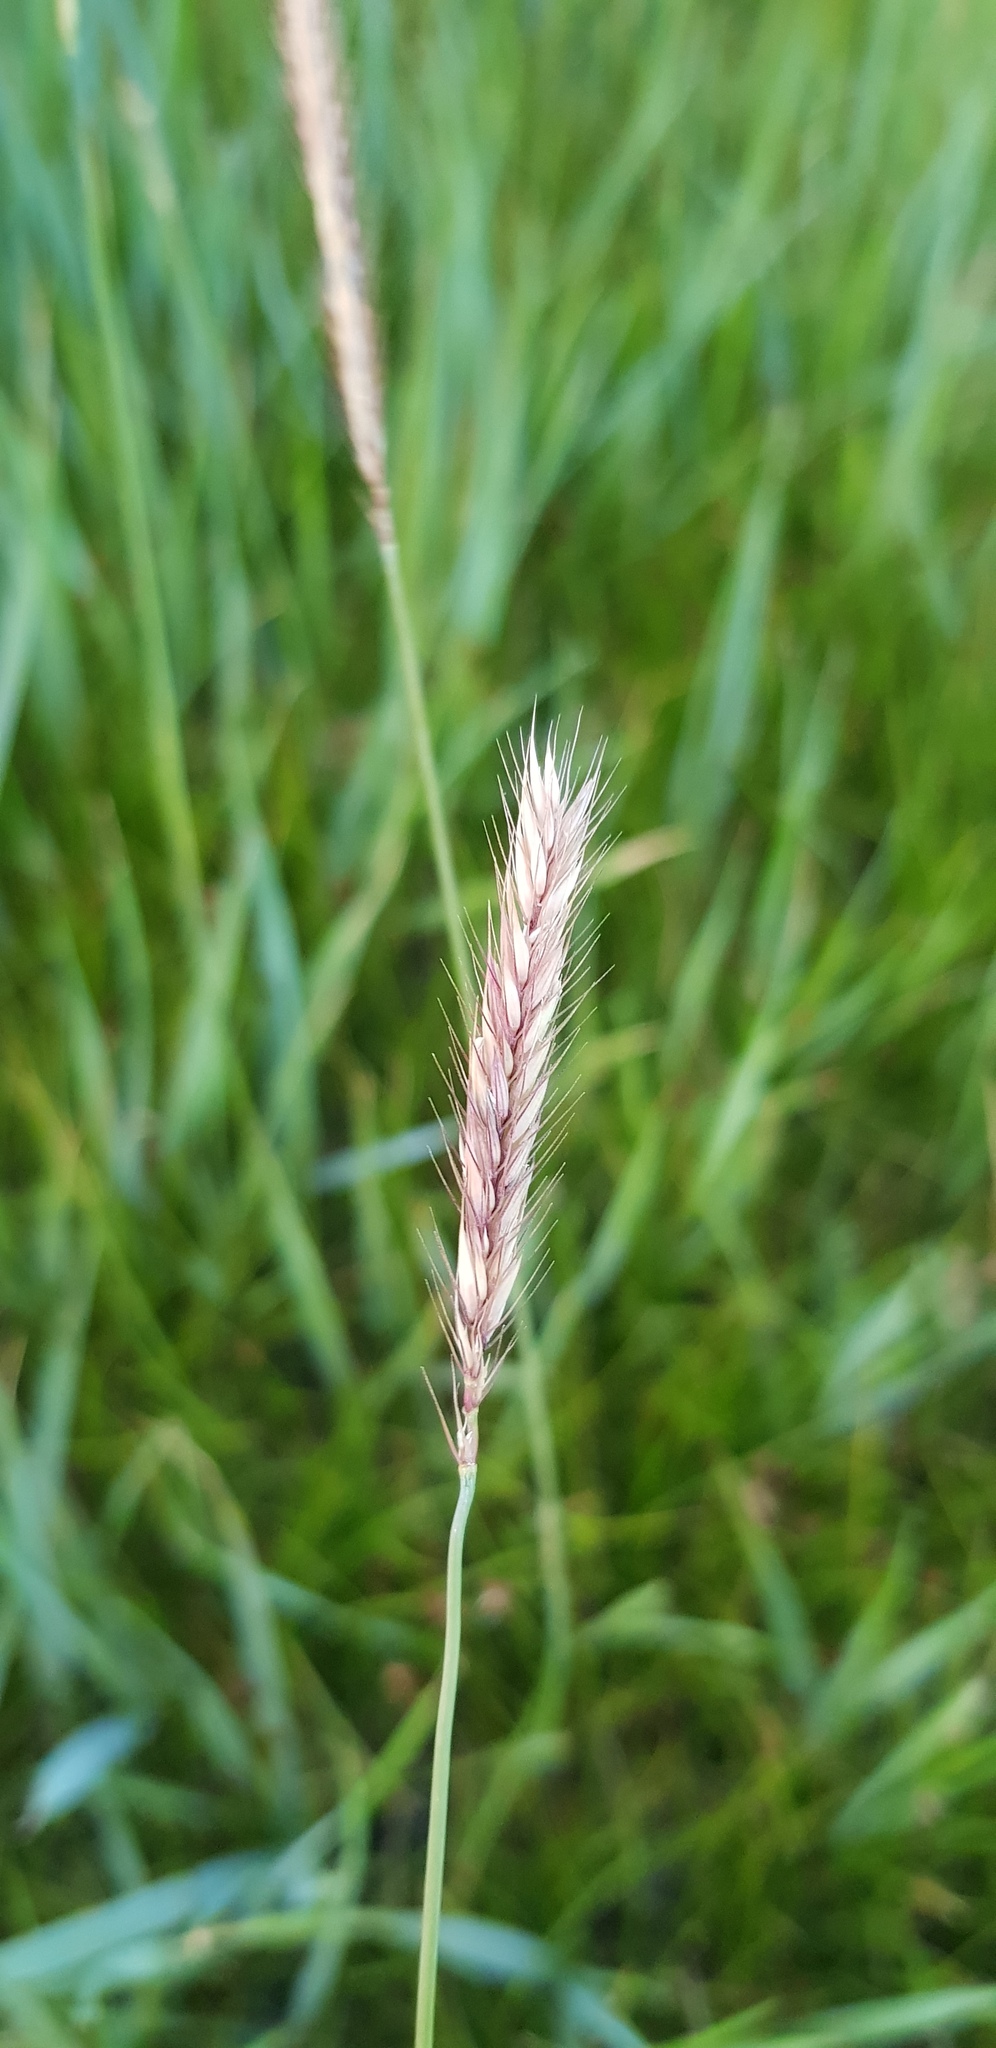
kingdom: Plantae
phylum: Tracheophyta
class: Liliopsida
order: Poales
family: Poaceae
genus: Hordeum
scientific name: Hordeum brevisubulatum
